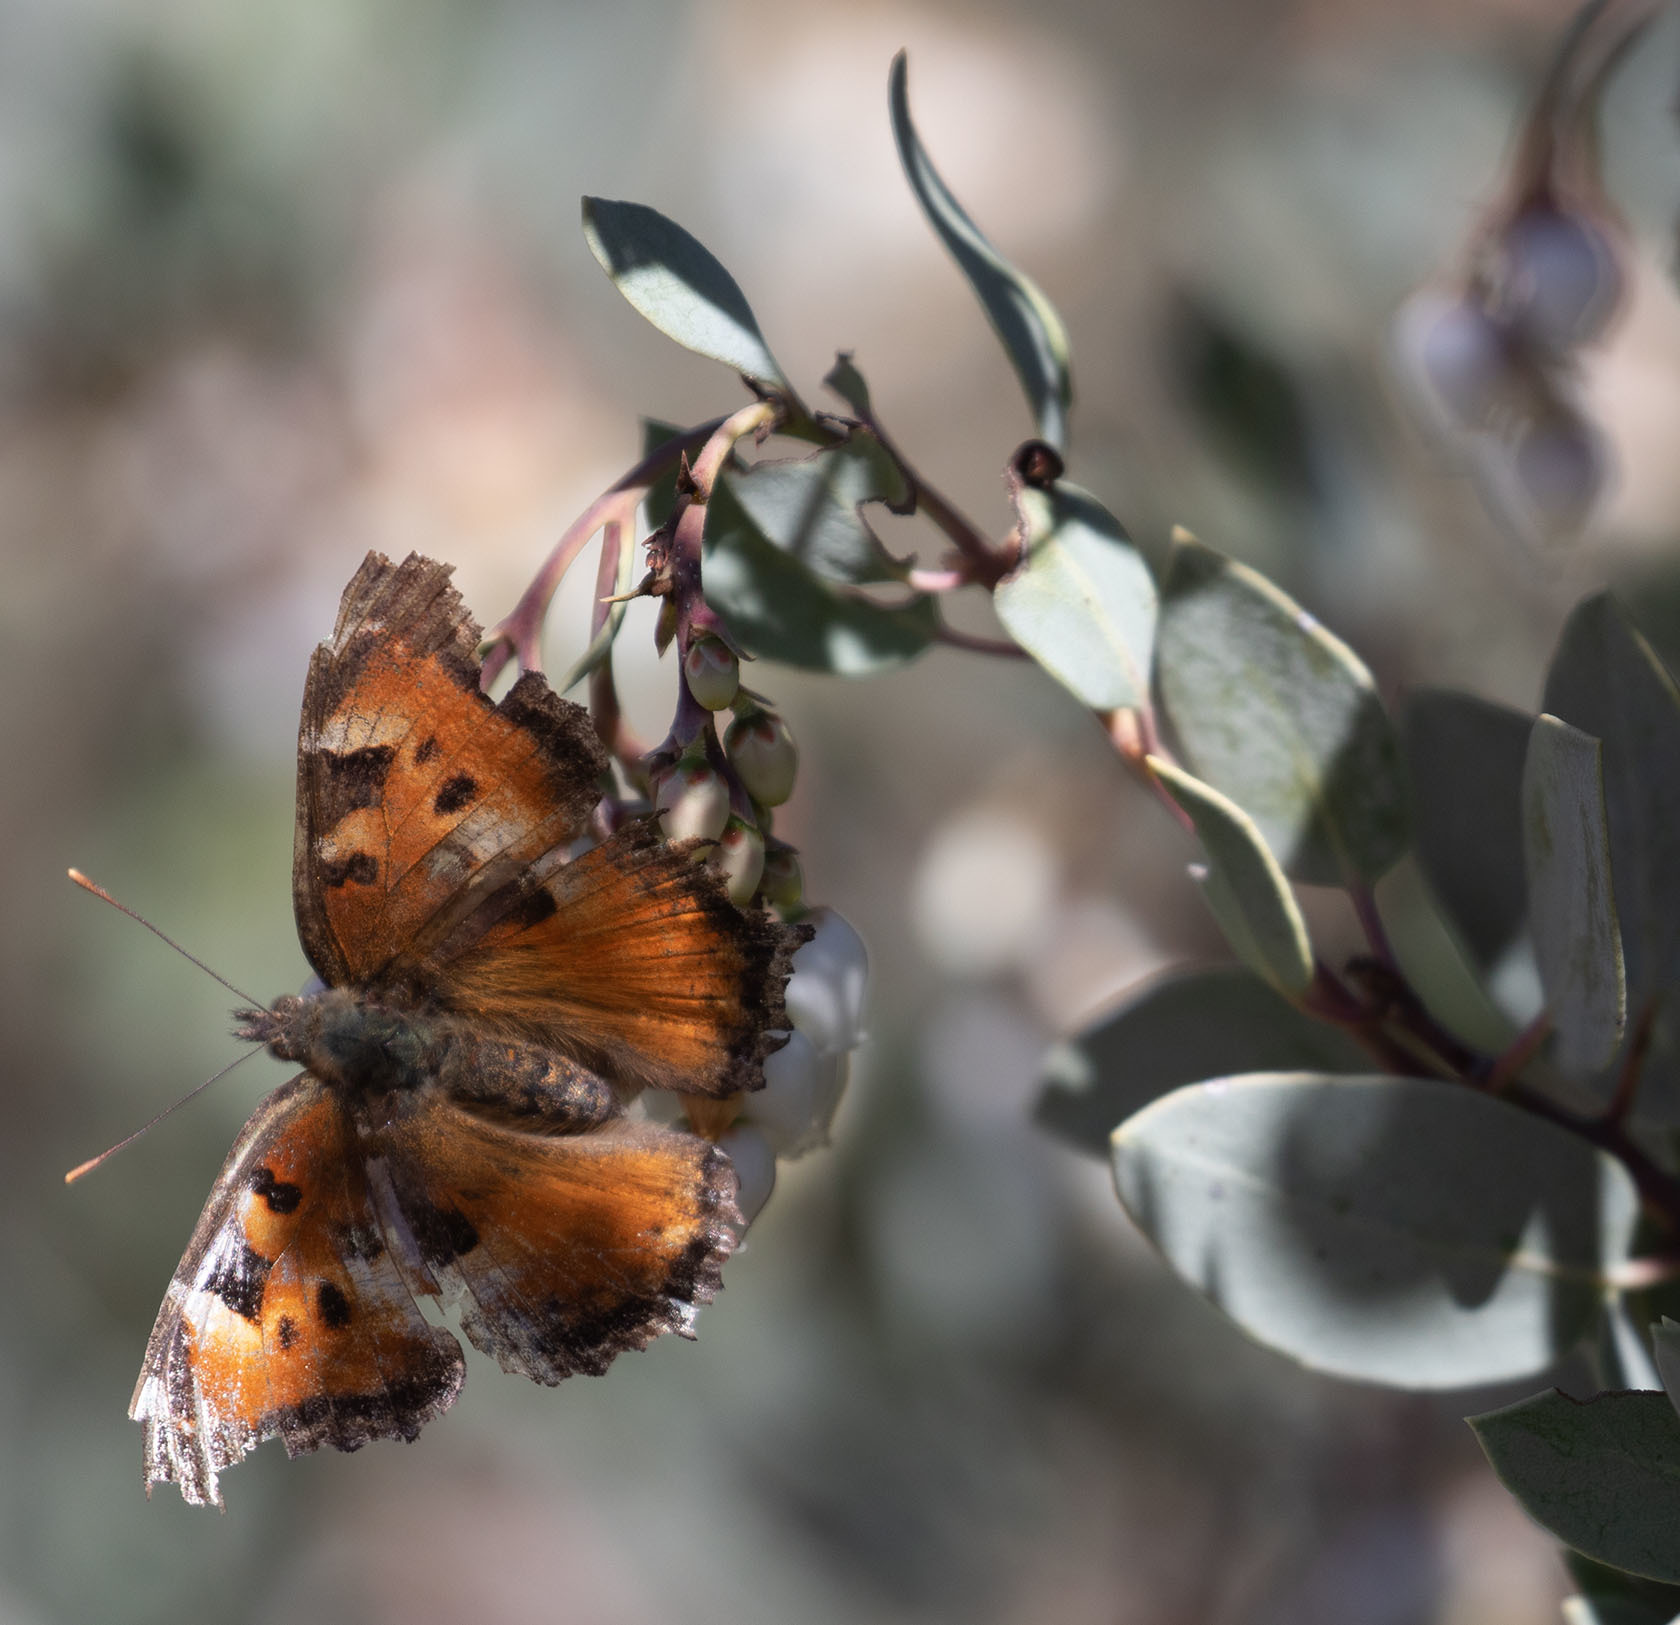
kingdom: Animalia
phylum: Arthropoda
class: Insecta
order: Lepidoptera
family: Nymphalidae
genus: Nymphalis
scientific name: Nymphalis californica
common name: California tortoiseshell
